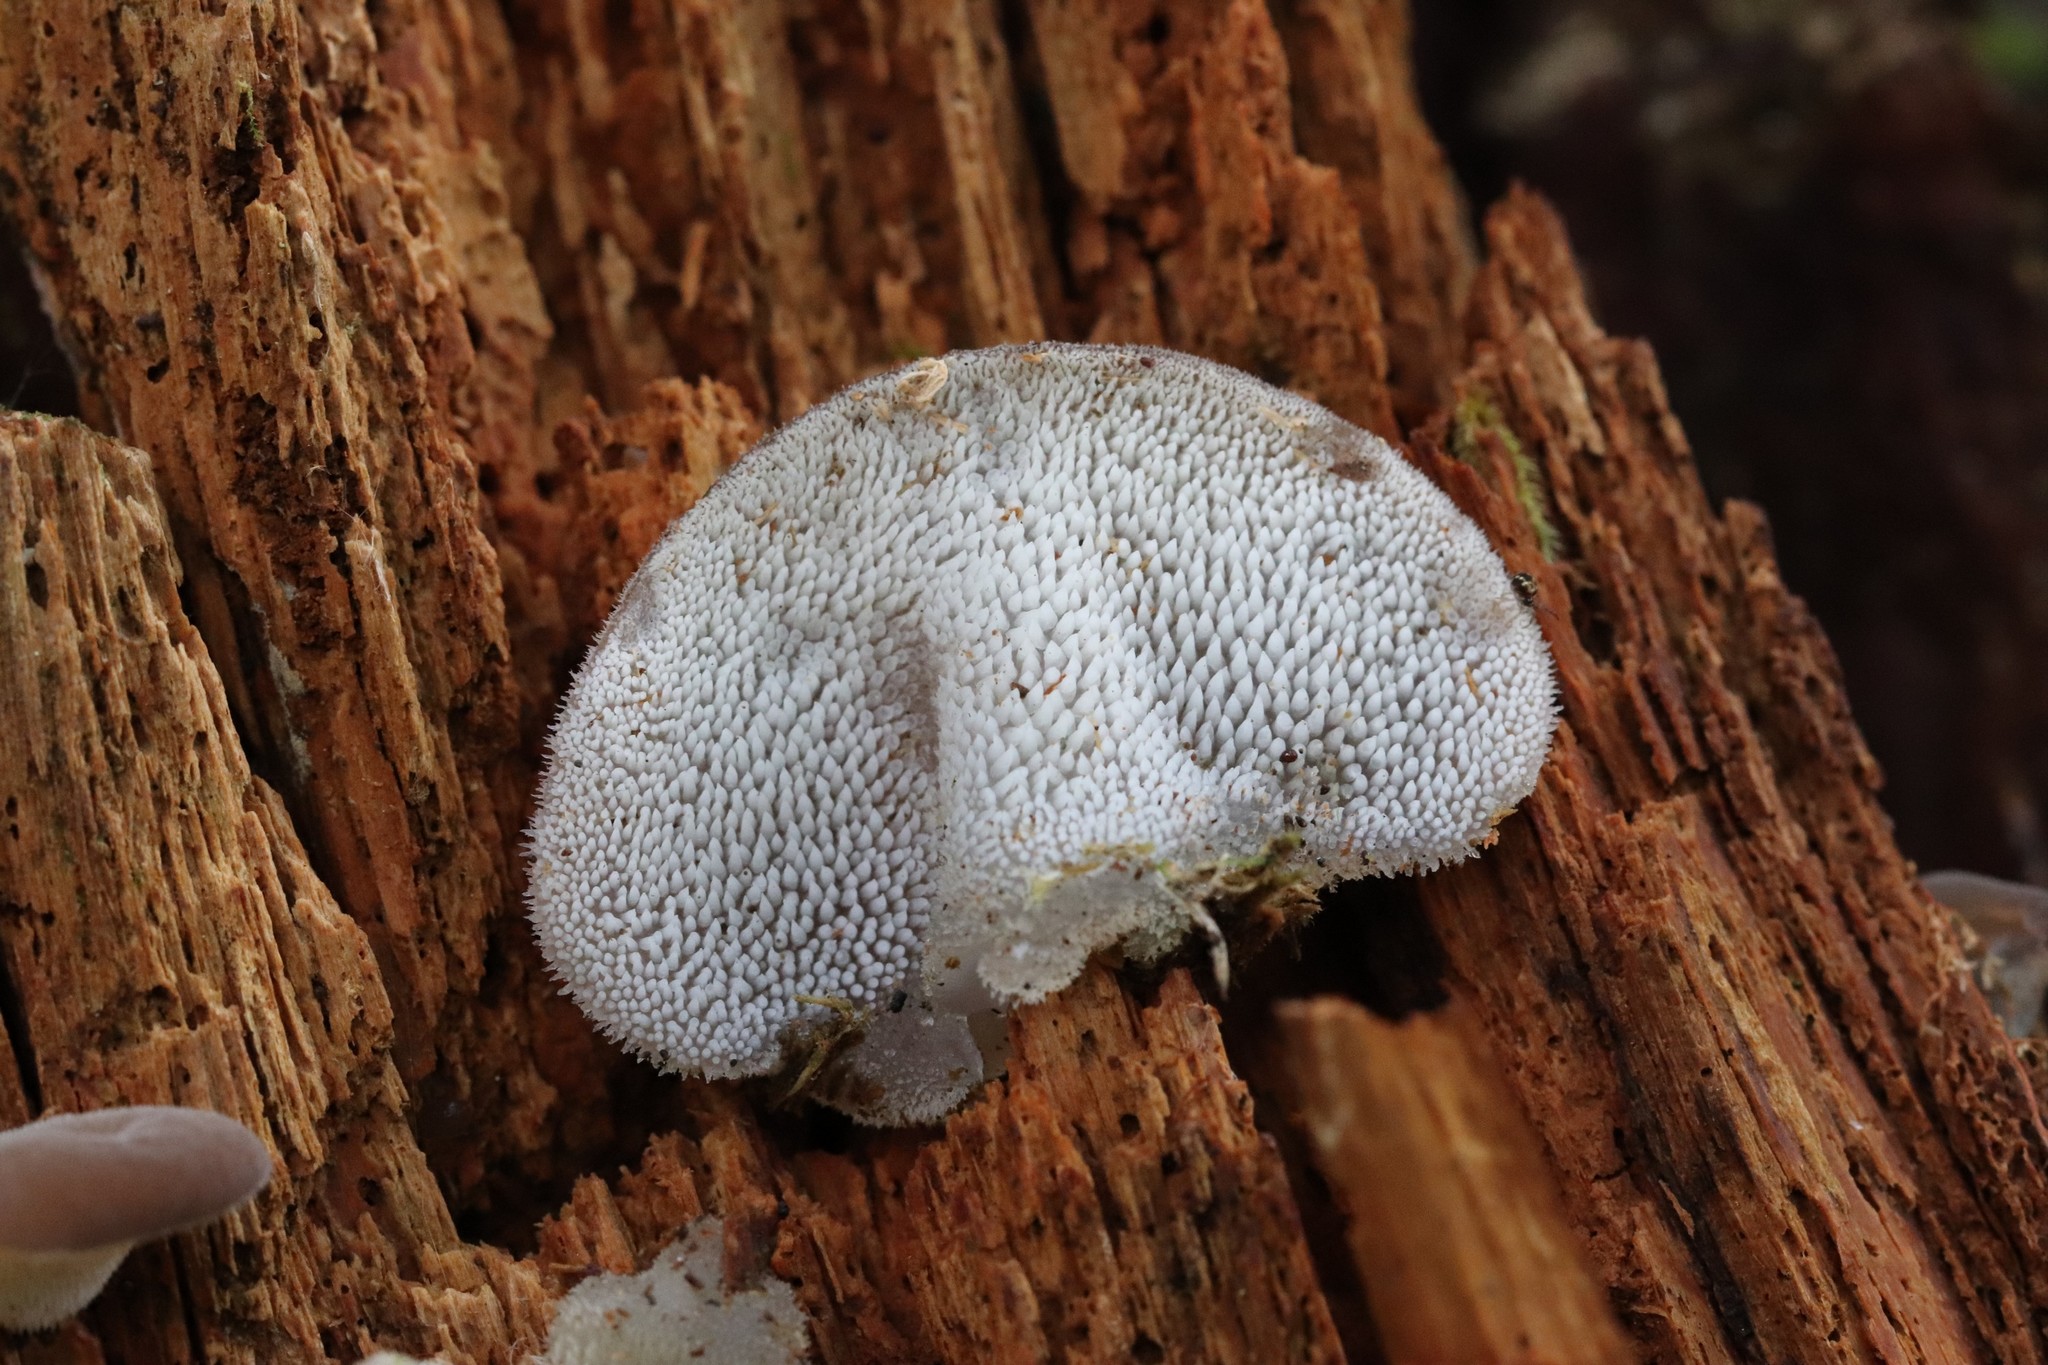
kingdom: Fungi
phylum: Basidiomycota
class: Agaricomycetes
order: Auriculariales
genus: Pseudohydnum
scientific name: Pseudohydnum gelatinosum
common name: Jelly tongue
